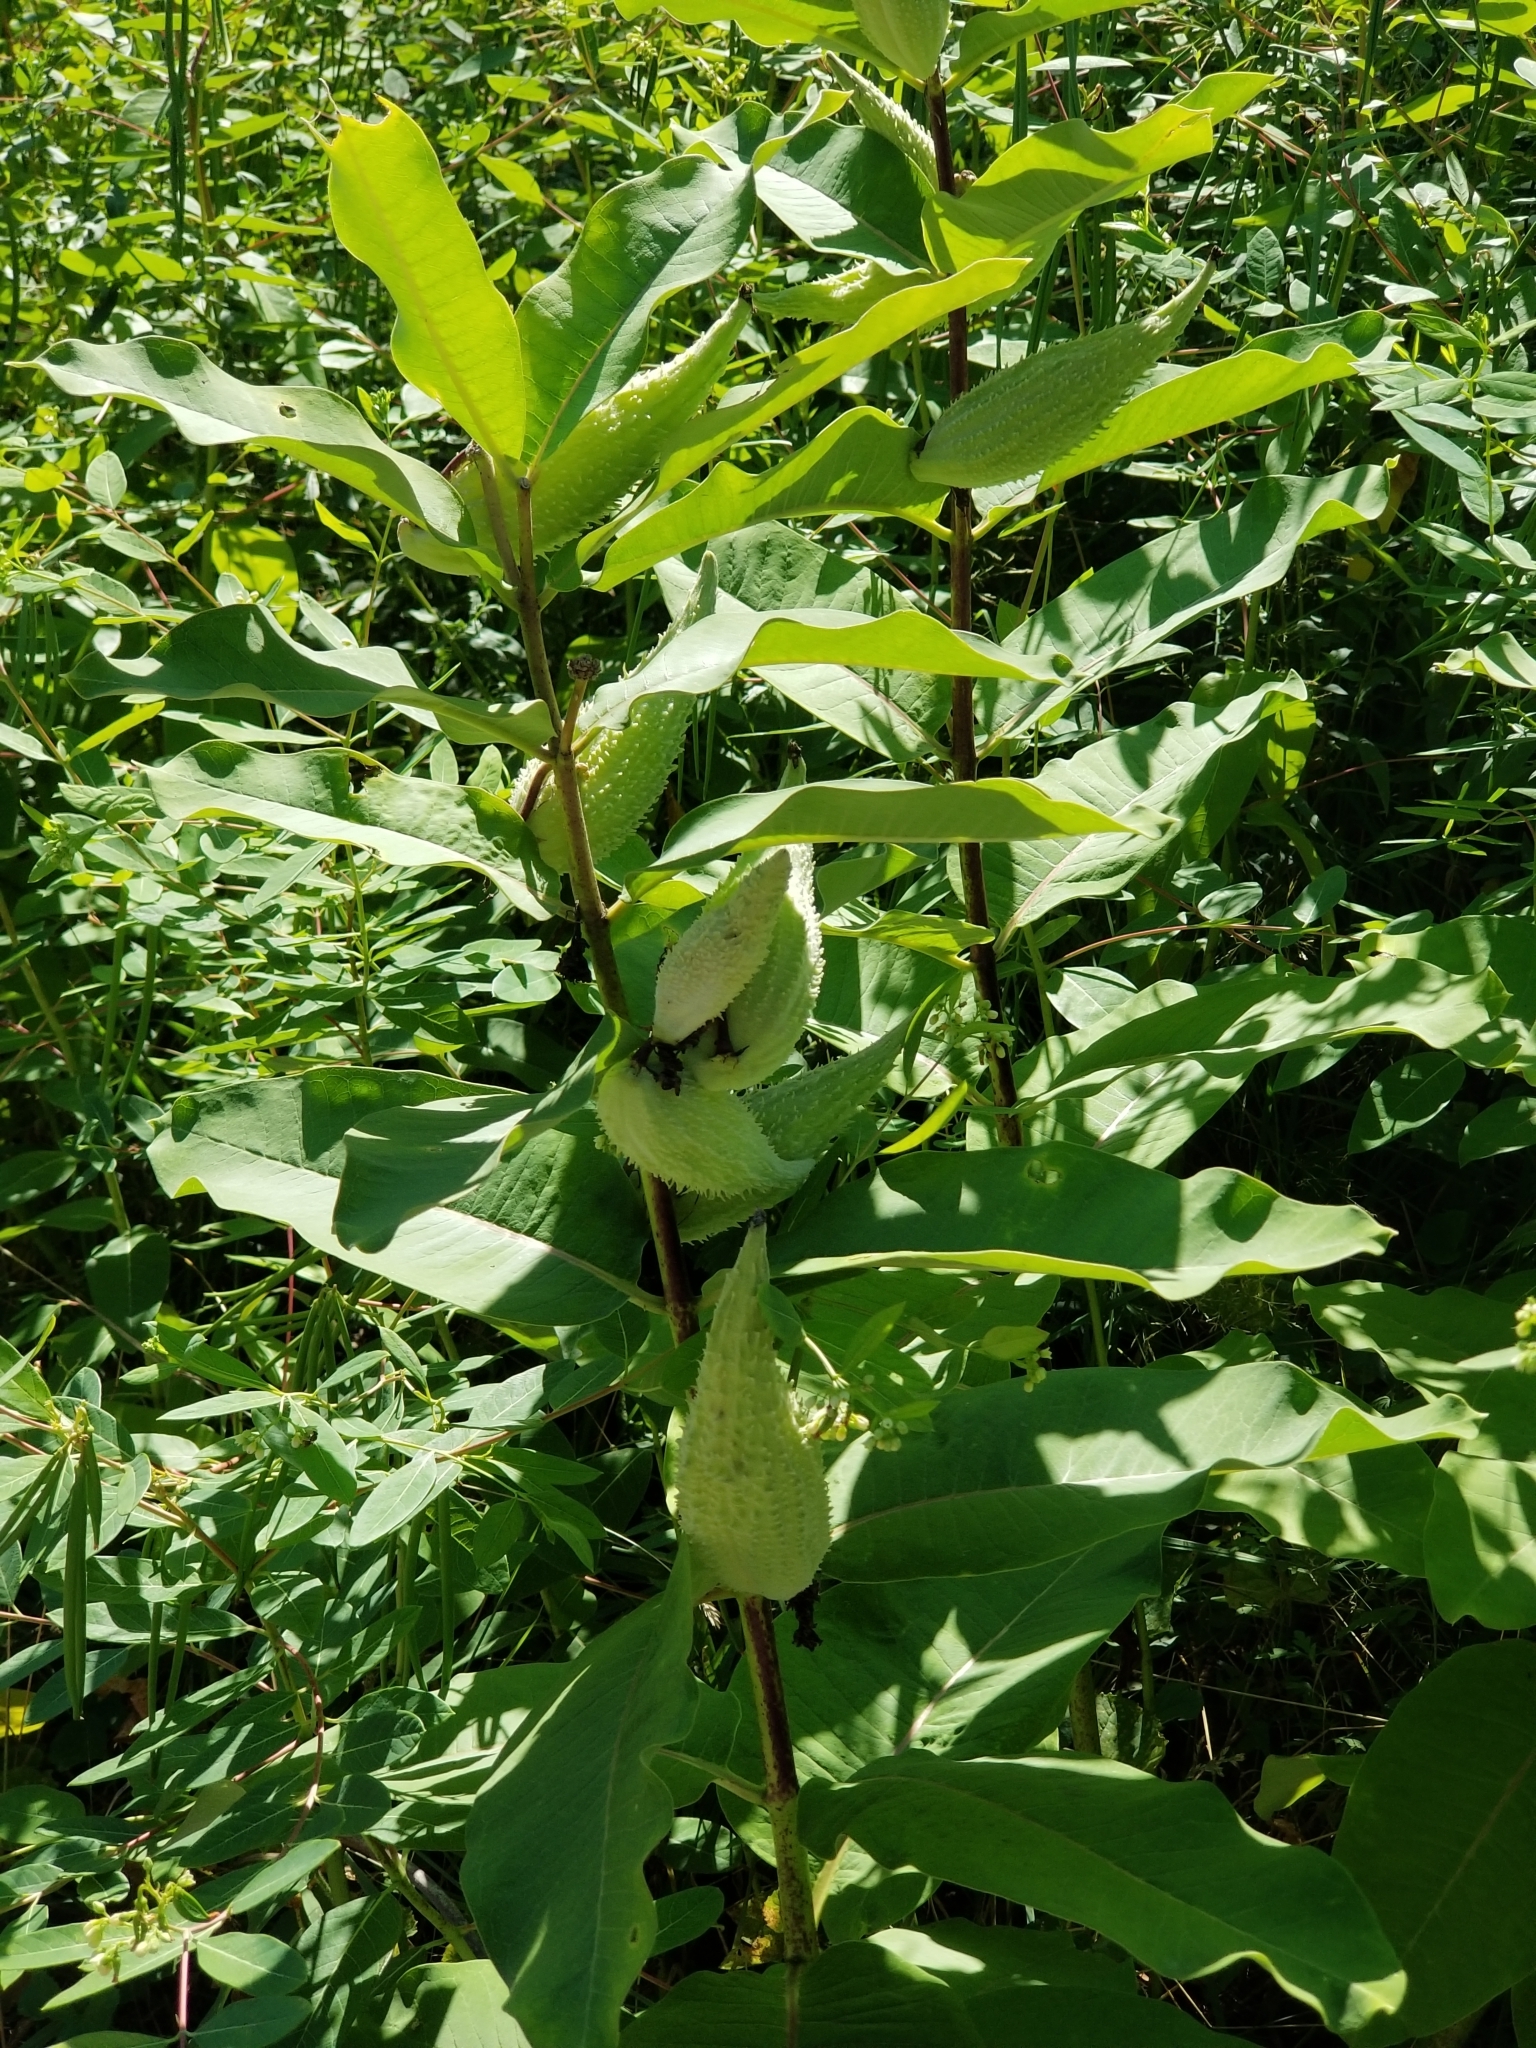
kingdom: Plantae
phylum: Tracheophyta
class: Magnoliopsida
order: Gentianales
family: Apocynaceae
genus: Asclepias
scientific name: Asclepias syriaca
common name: Common milkweed
